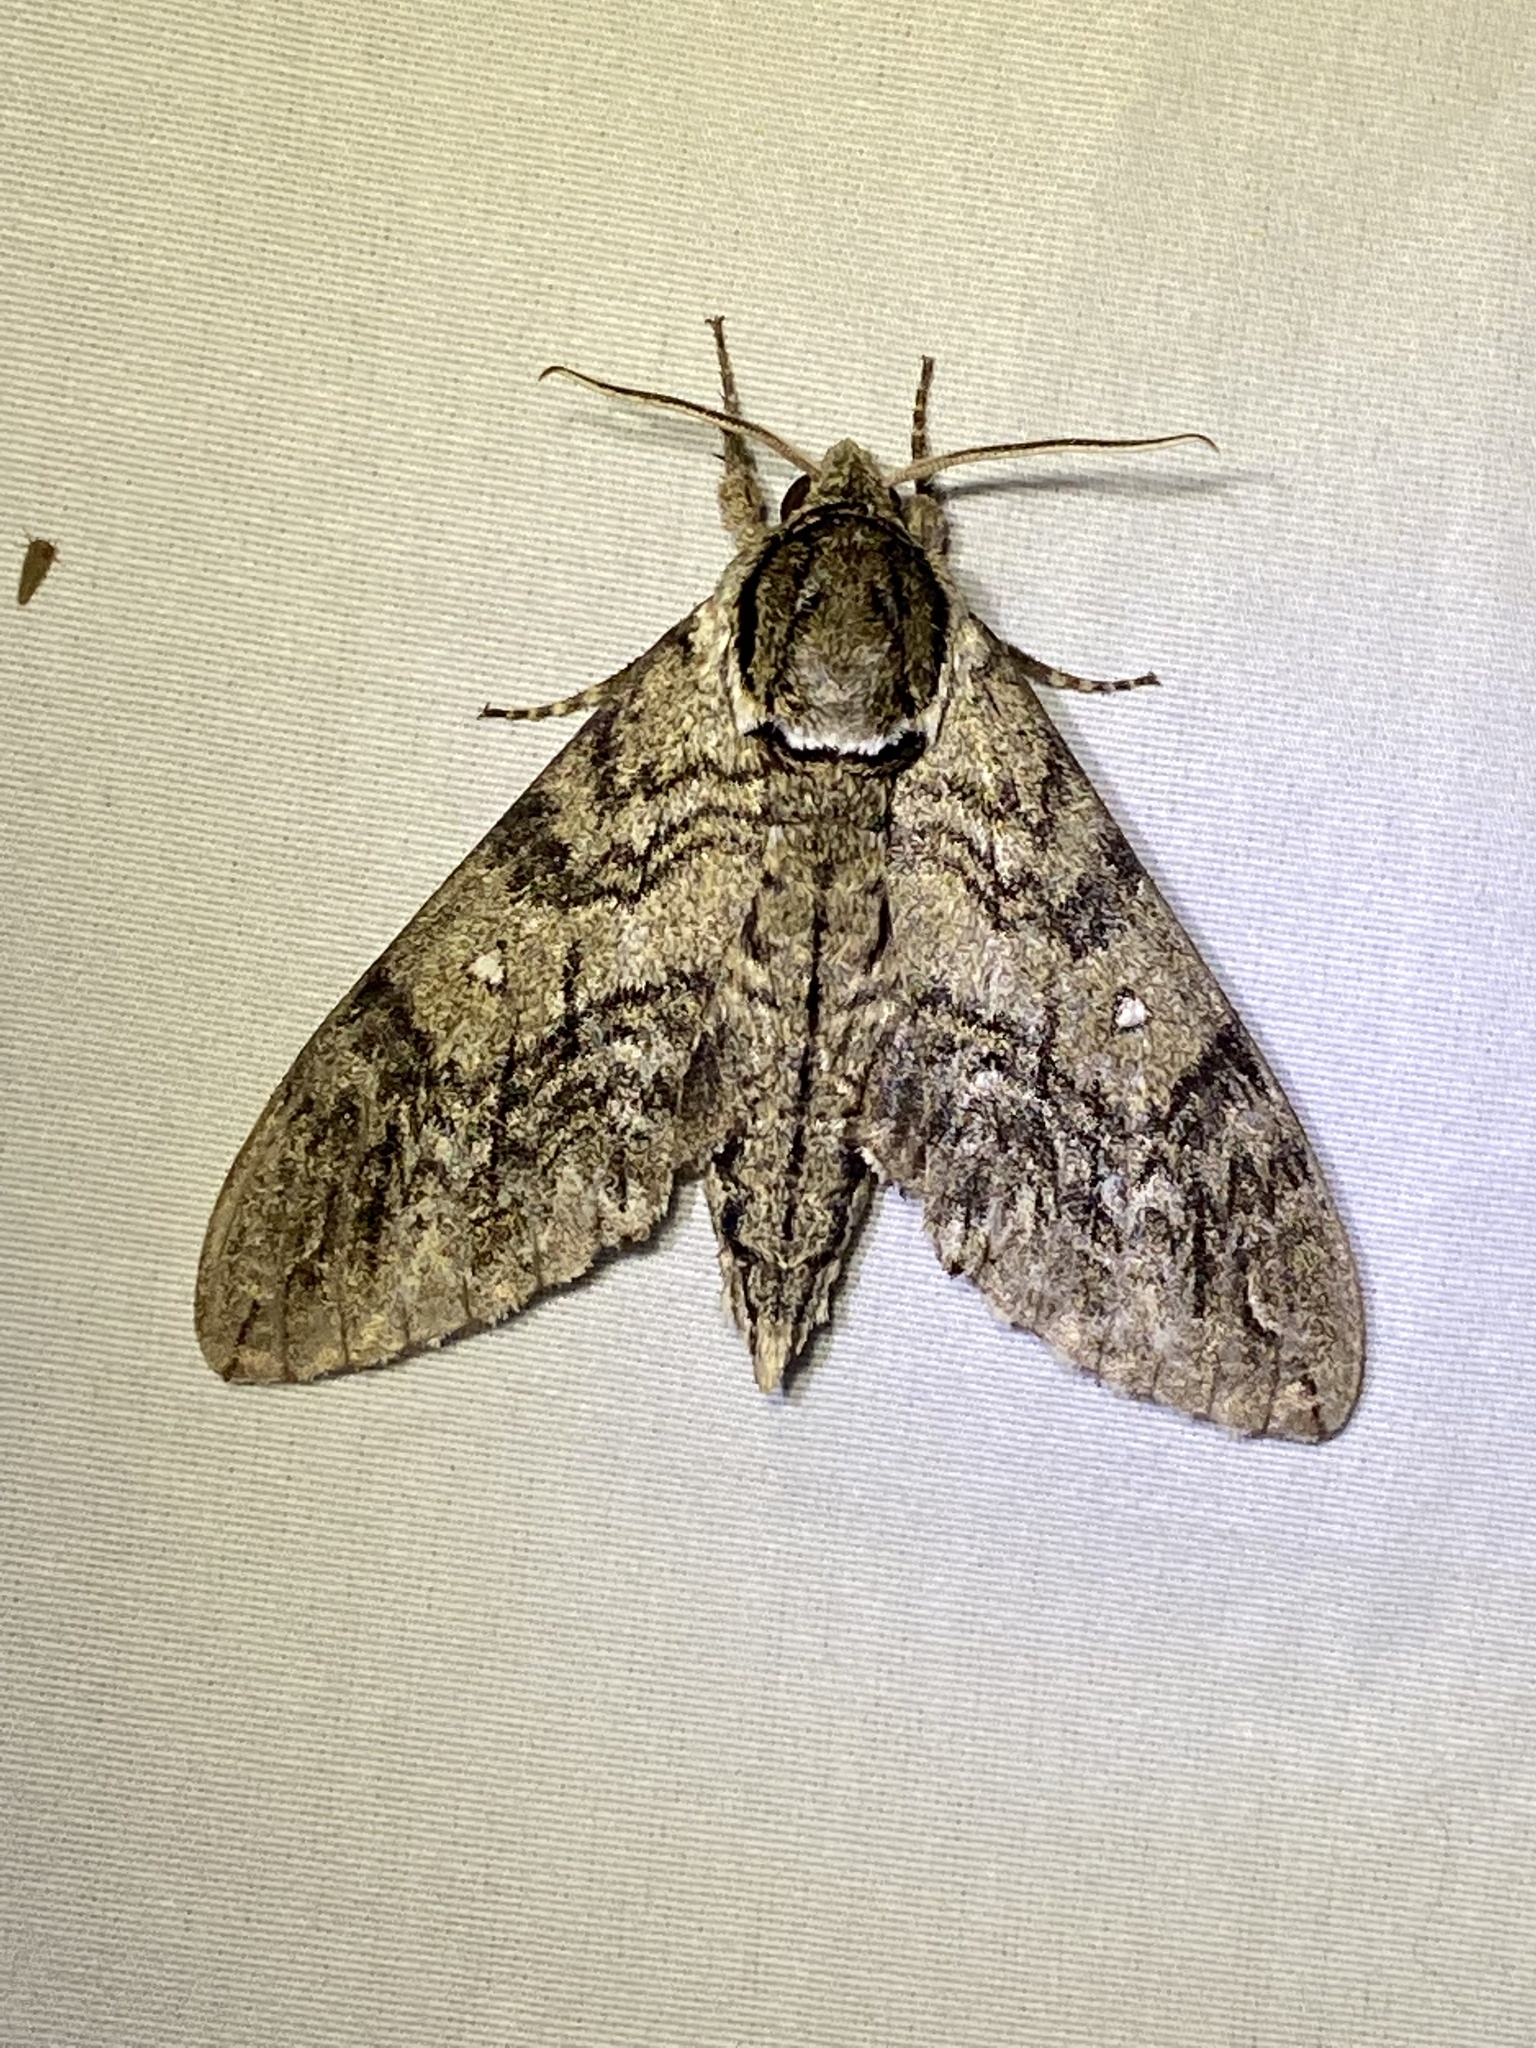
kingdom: Animalia
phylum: Arthropoda
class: Insecta
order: Lepidoptera
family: Sphingidae
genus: Ceratomia
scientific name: Ceratomia undulosa
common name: Waved sphinx
